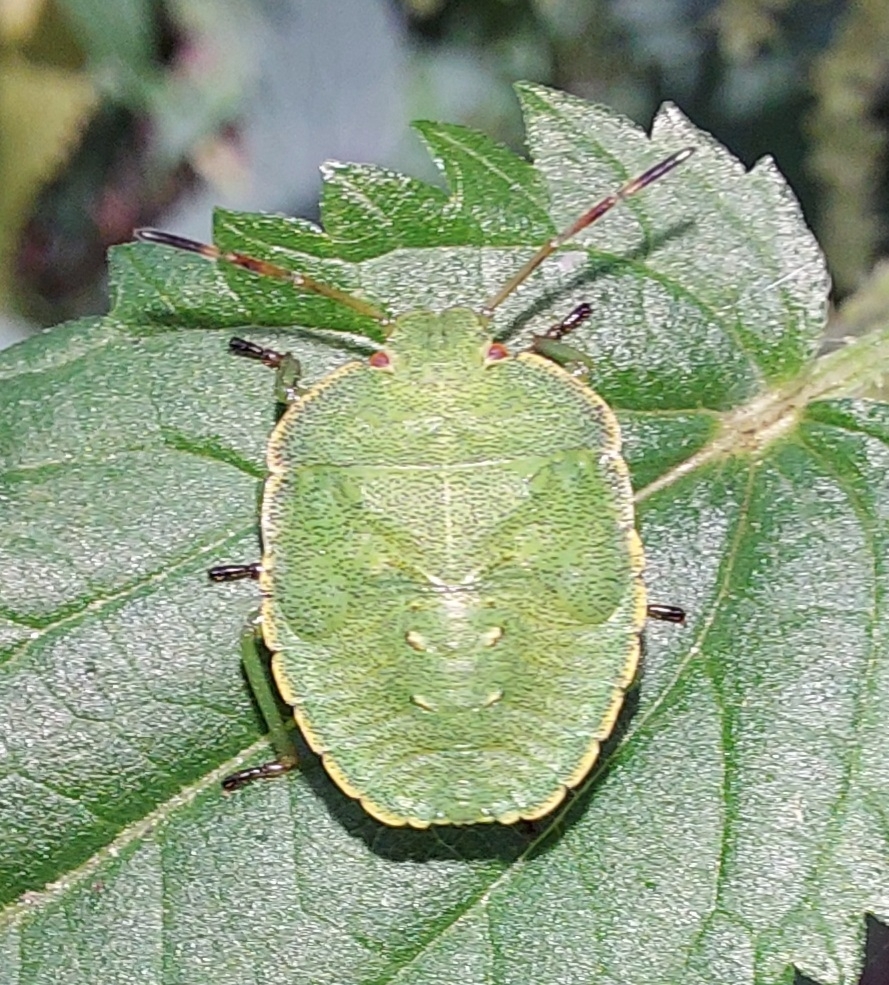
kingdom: Animalia
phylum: Arthropoda
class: Insecta
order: Hemiptera
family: Pentatomidae
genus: Palomena
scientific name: Palomena prasina
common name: Green shieldbug
